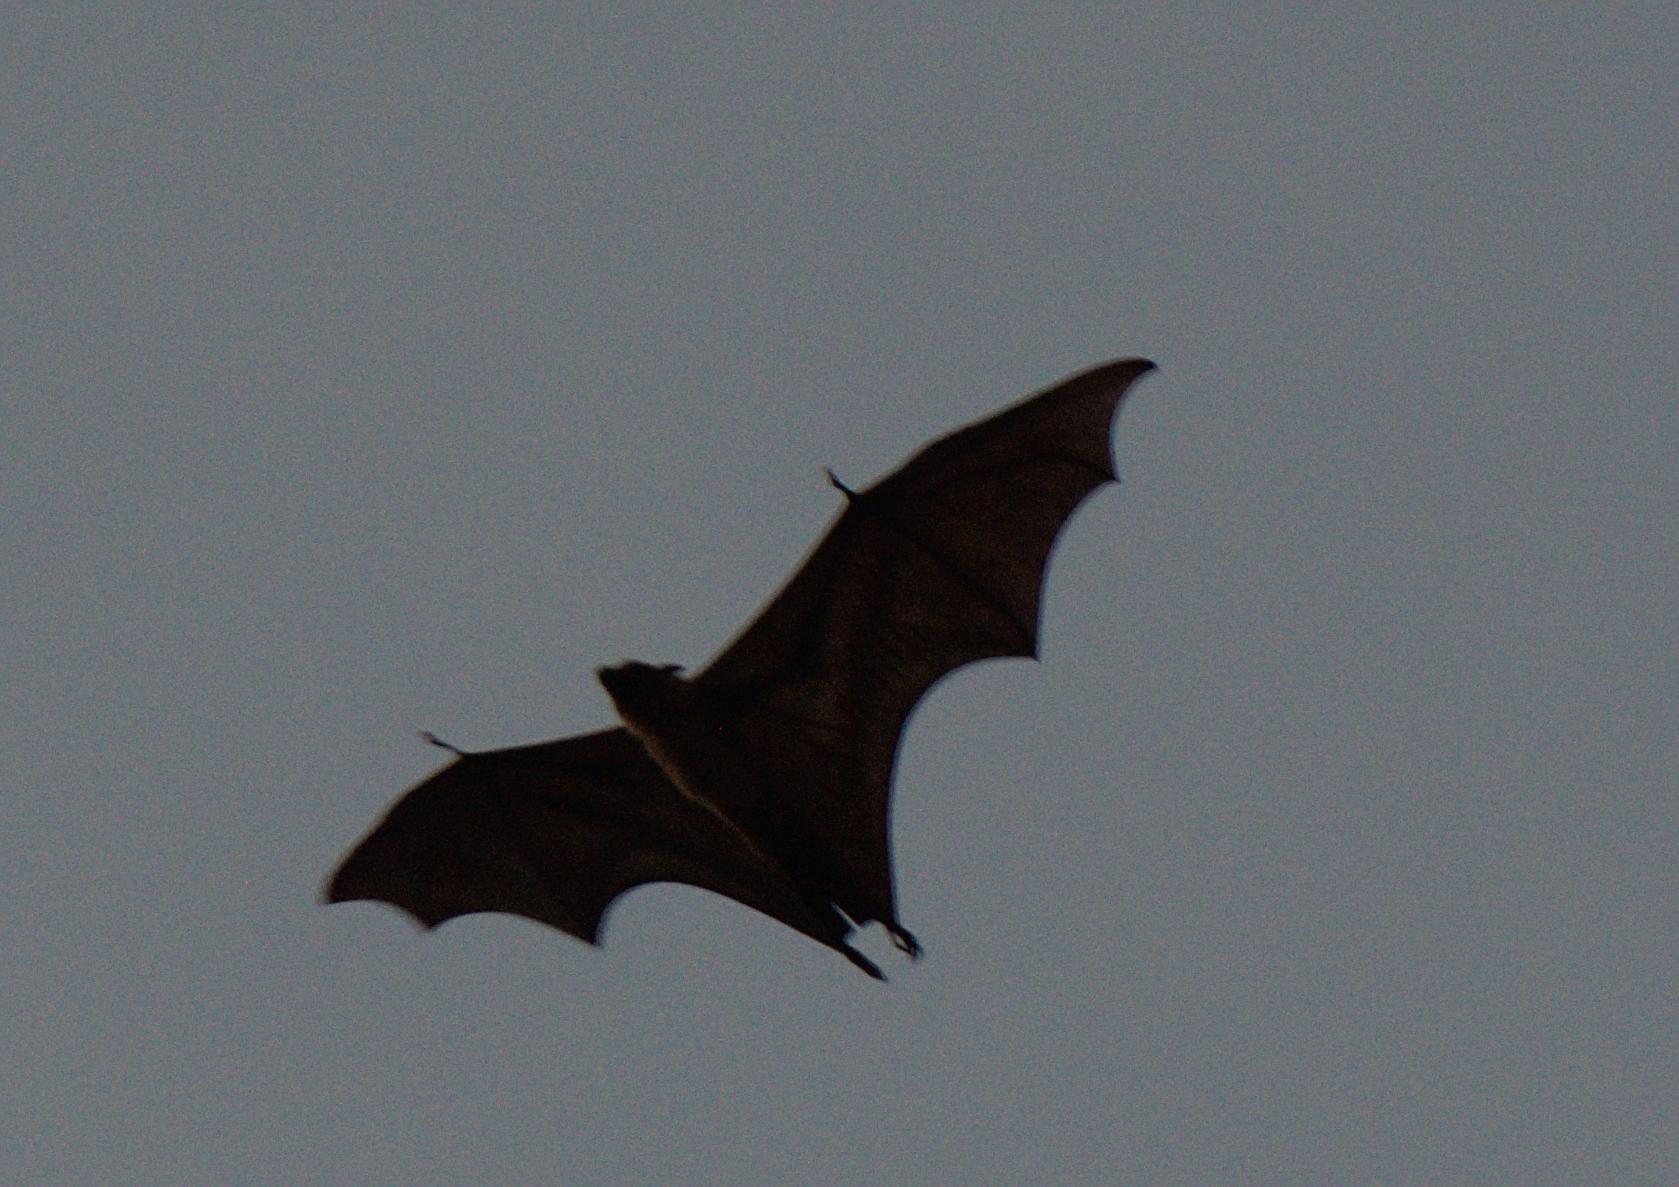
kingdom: Animalia
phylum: Chordata
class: Mammalia
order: Chiroptera
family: Pteropodidae
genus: Pteropus
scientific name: Pteropus vampyrus
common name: Large flying fox
